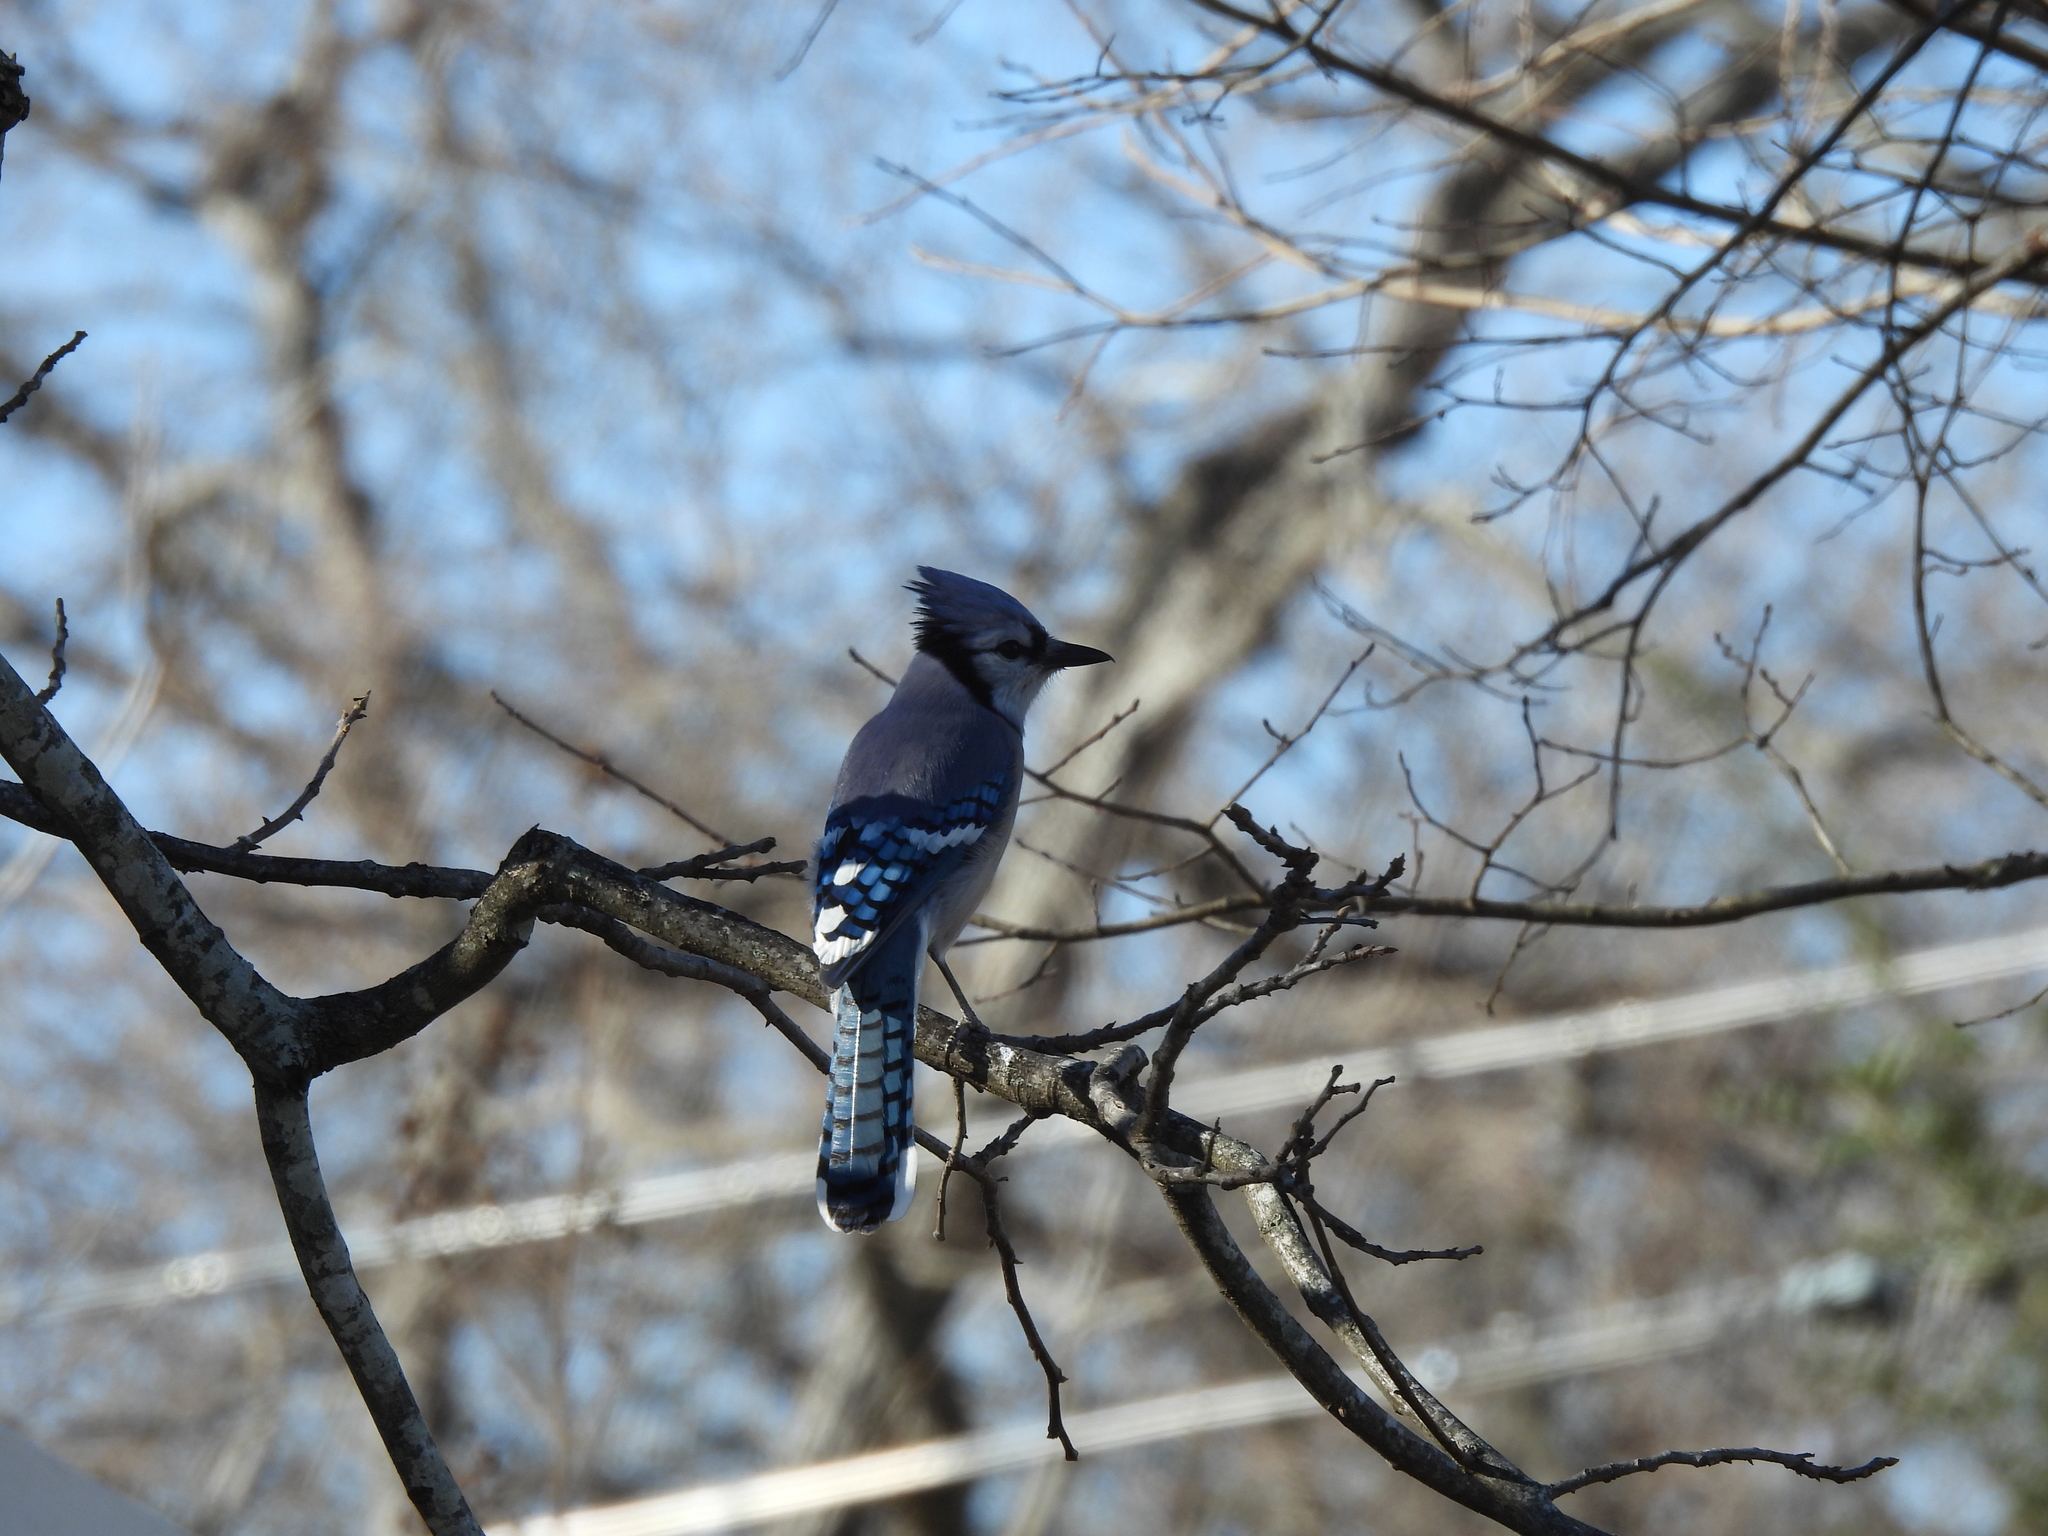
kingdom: Animalia
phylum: Chordata
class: Aves
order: Passeriformes
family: Corvidae
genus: Cyanocitta
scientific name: Cyanocitta cristata
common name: Blue jay
